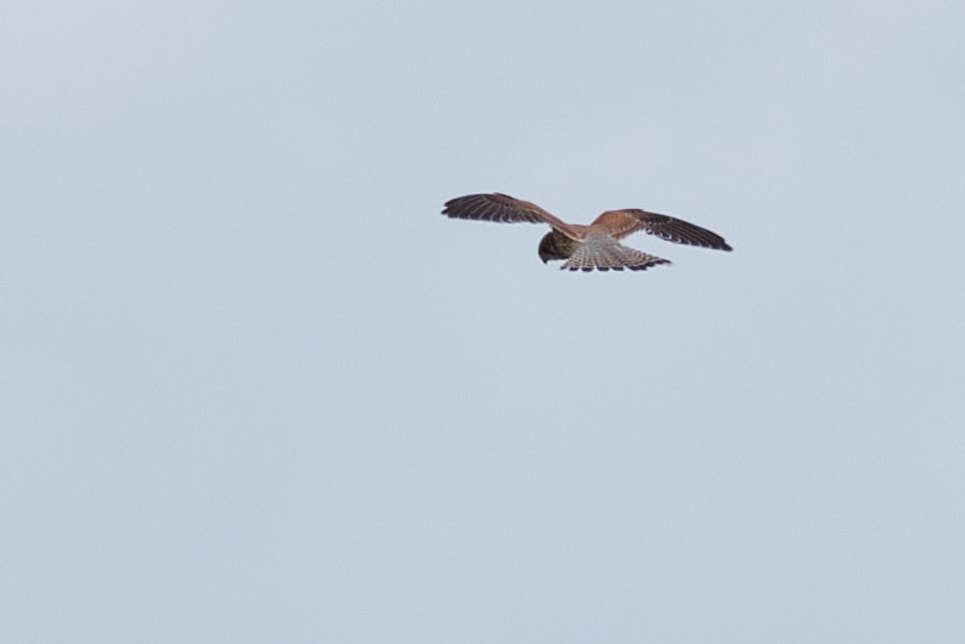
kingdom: Animalia
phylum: Chordata
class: Aves
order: Falconiformes
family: Falconidae
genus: Falco
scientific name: Falco tinnunculus
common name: Common kestrel
